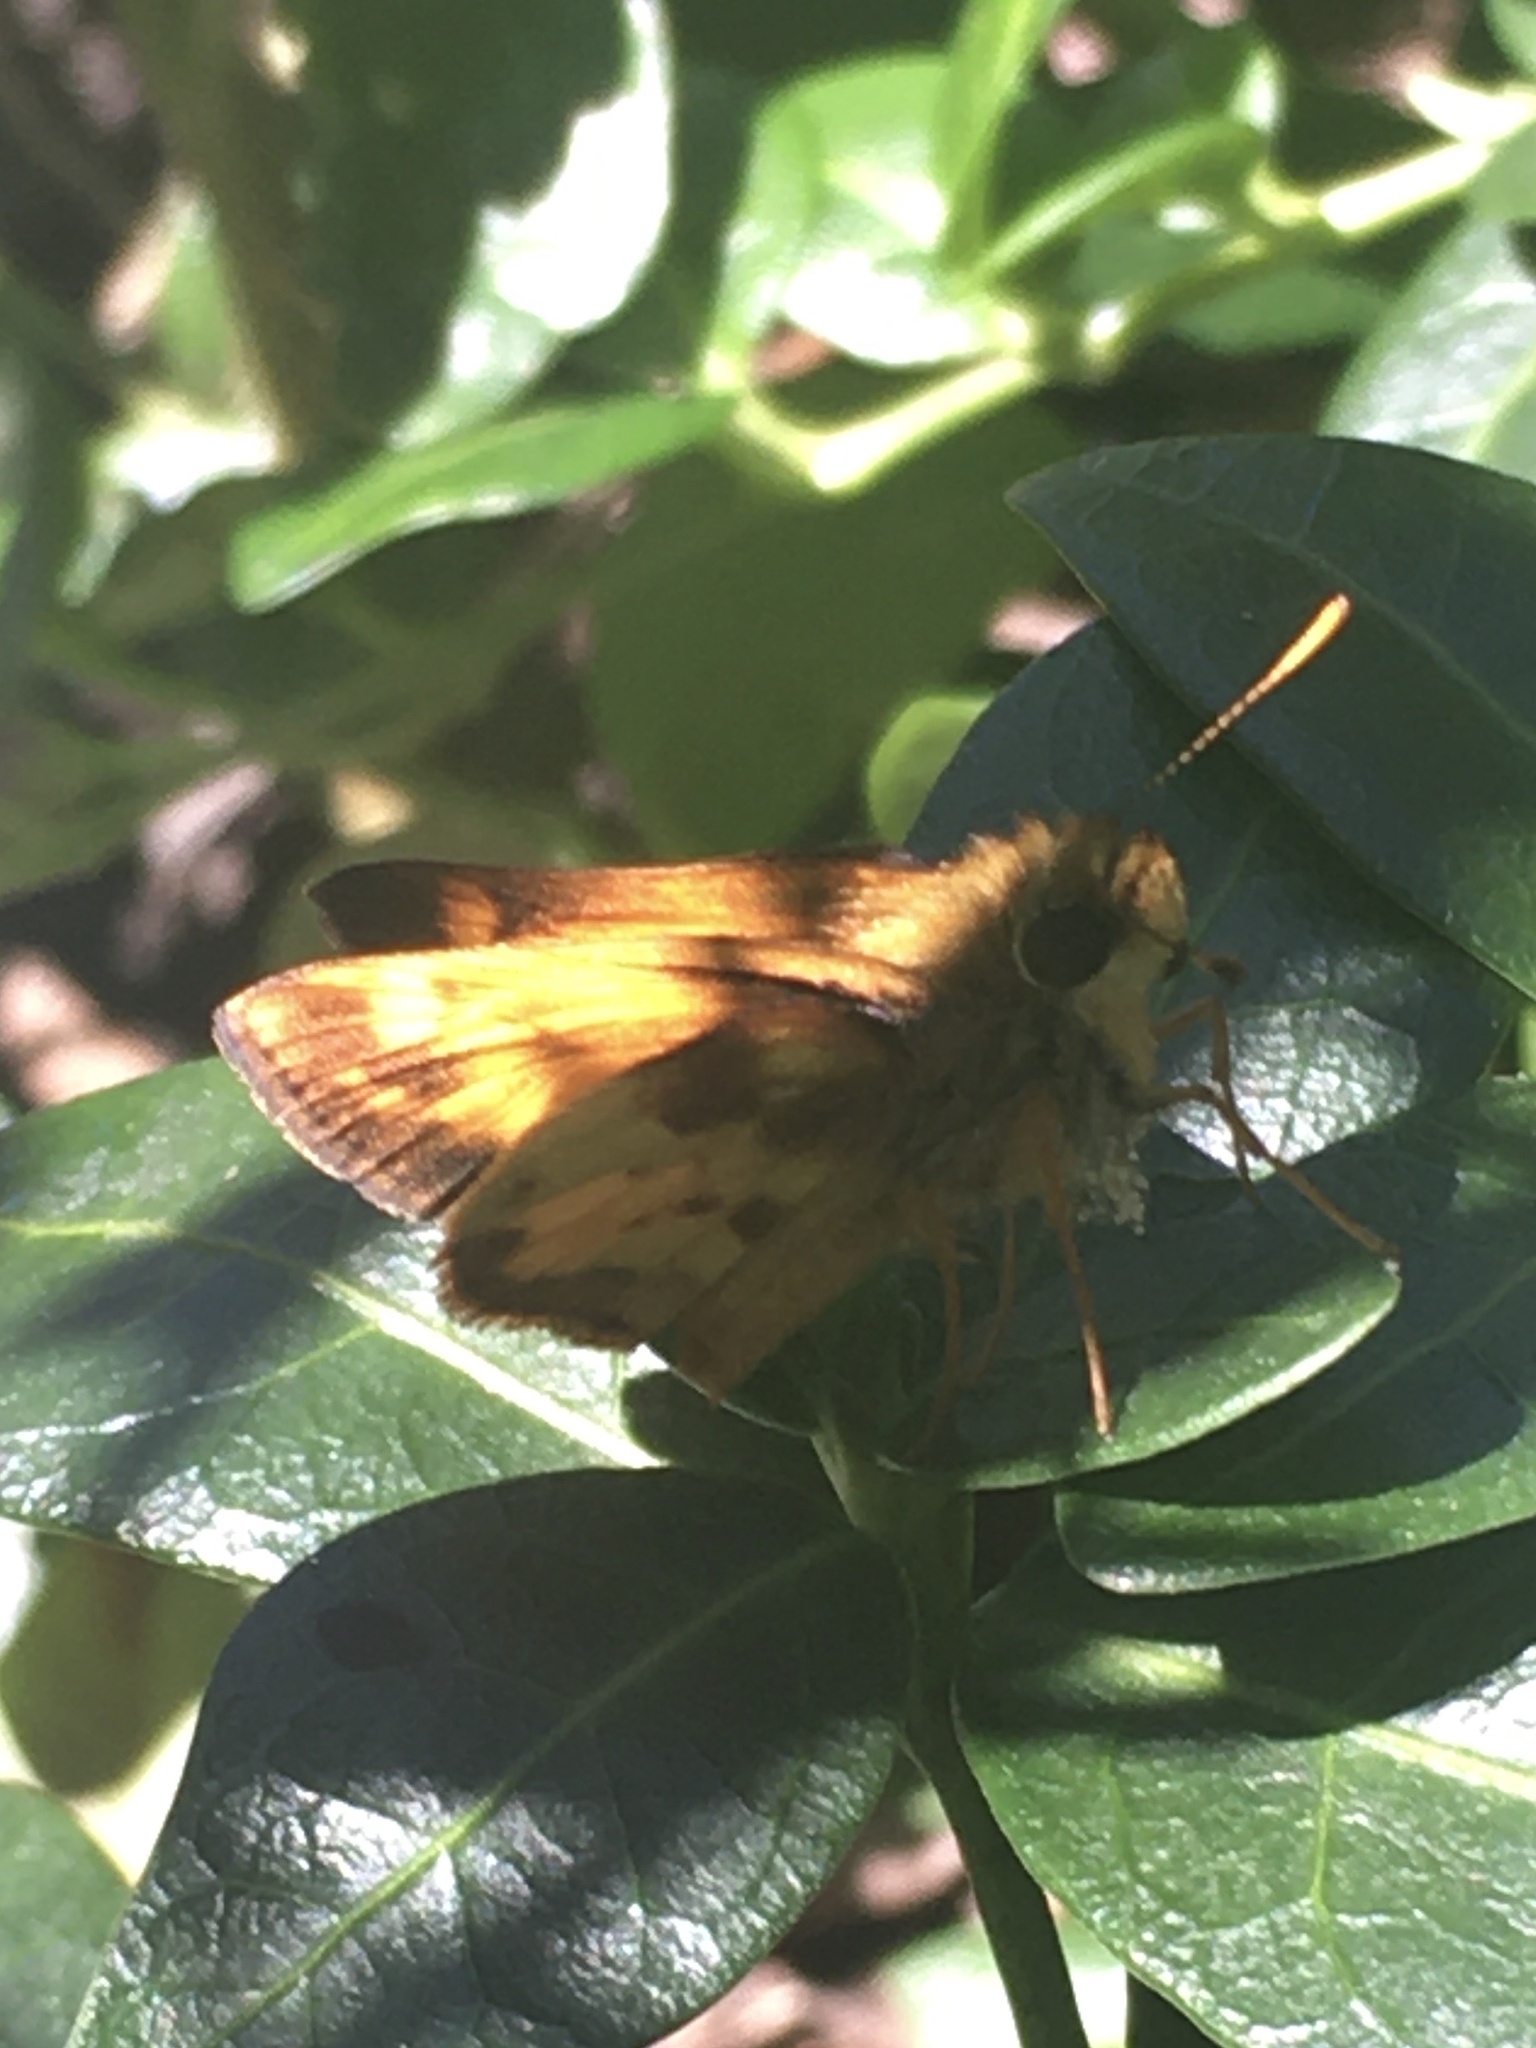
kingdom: Animalia
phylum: Arthropoda
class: Insecta
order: Lepidoptera
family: Hesperiidae
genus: Lon
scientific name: Lon zabulon
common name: Zabulon skipper
